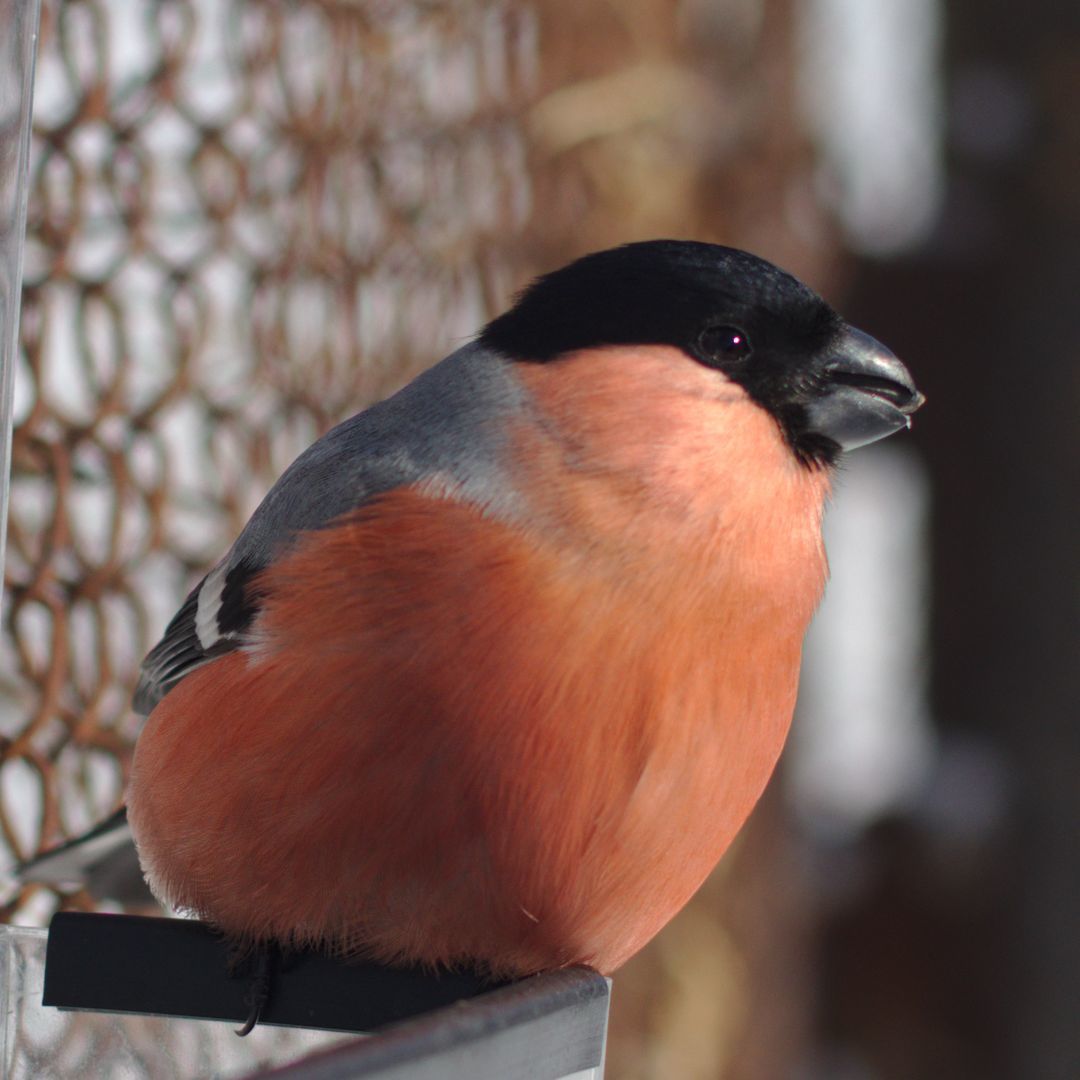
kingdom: Animalia
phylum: Chordata
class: Aves
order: Passeriformes
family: Fringillidae
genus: Pyrrhula
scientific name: Pyrrhula pyrrhula
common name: Eurasian bullfinch
